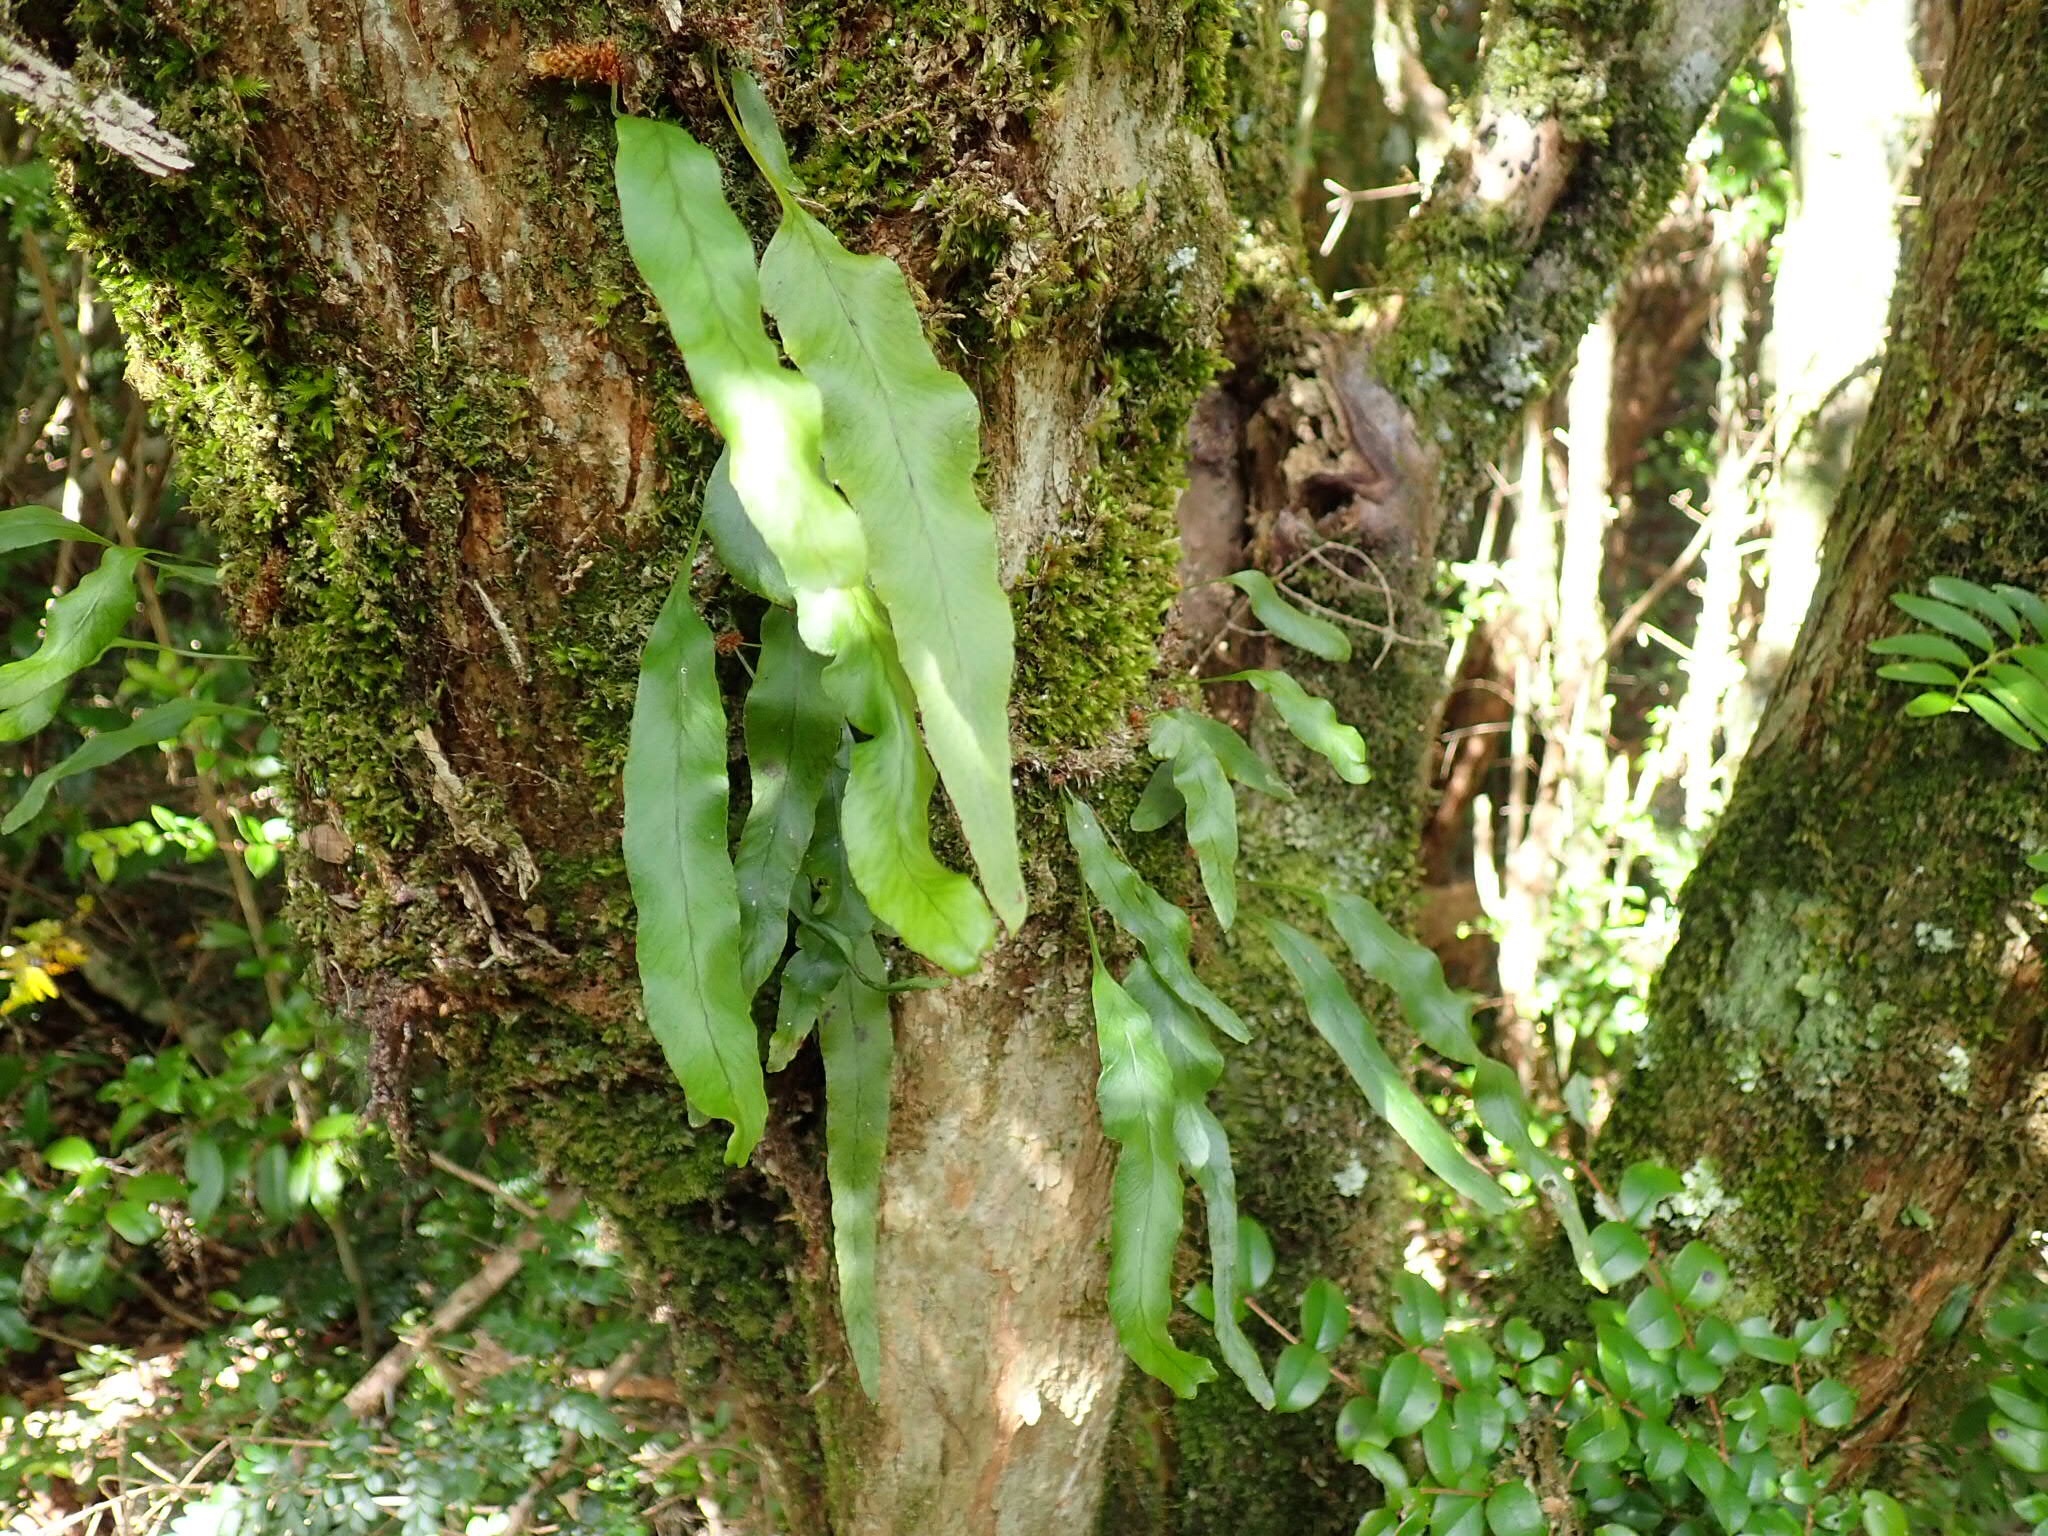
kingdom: Plantae
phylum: Tracheophyta
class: Polypodiopsida
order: Polypodiales
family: Polypodiaceae
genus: Synammia
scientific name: Synammia feuillei
